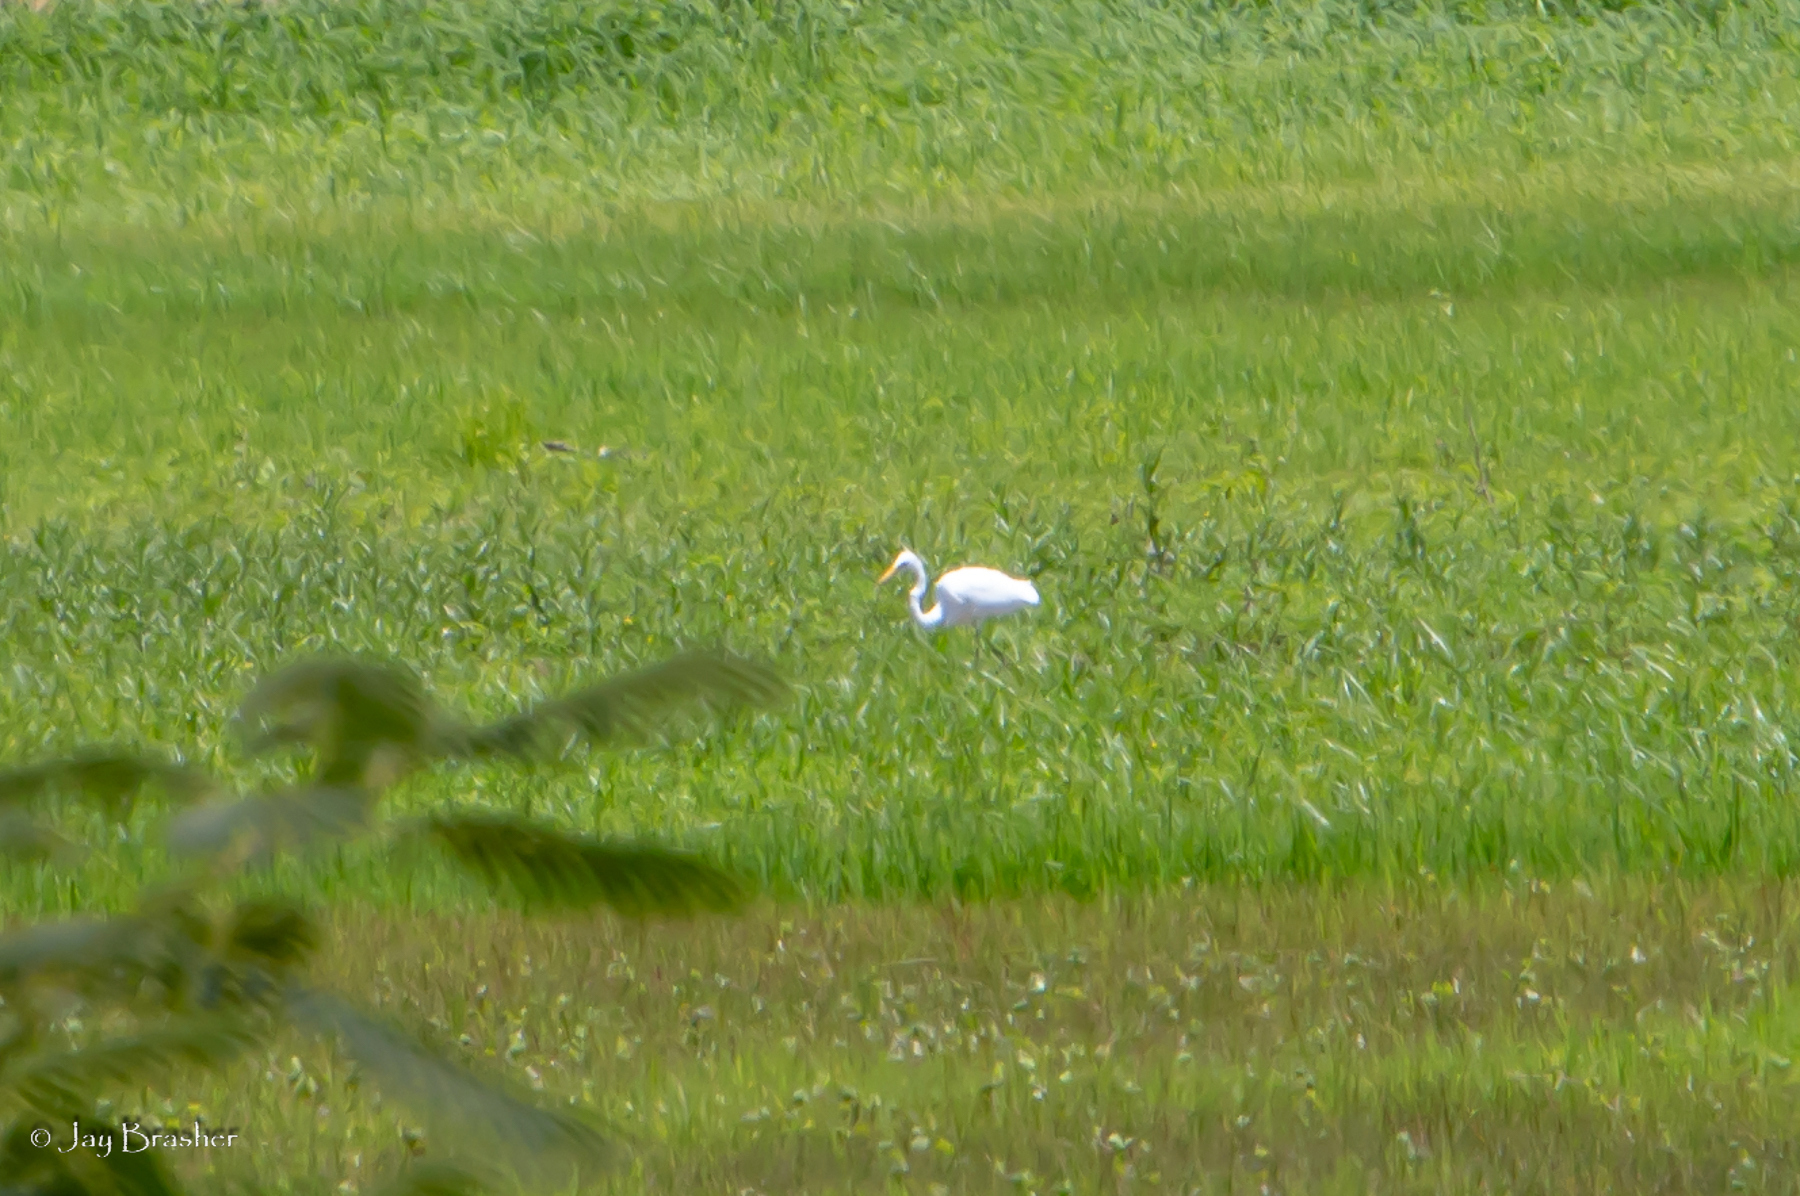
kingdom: Animalia
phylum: Chordata
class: Aves
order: Pelecaniformes
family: Ardeidae
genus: Ardea
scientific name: Ardea alba
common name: Great egret
